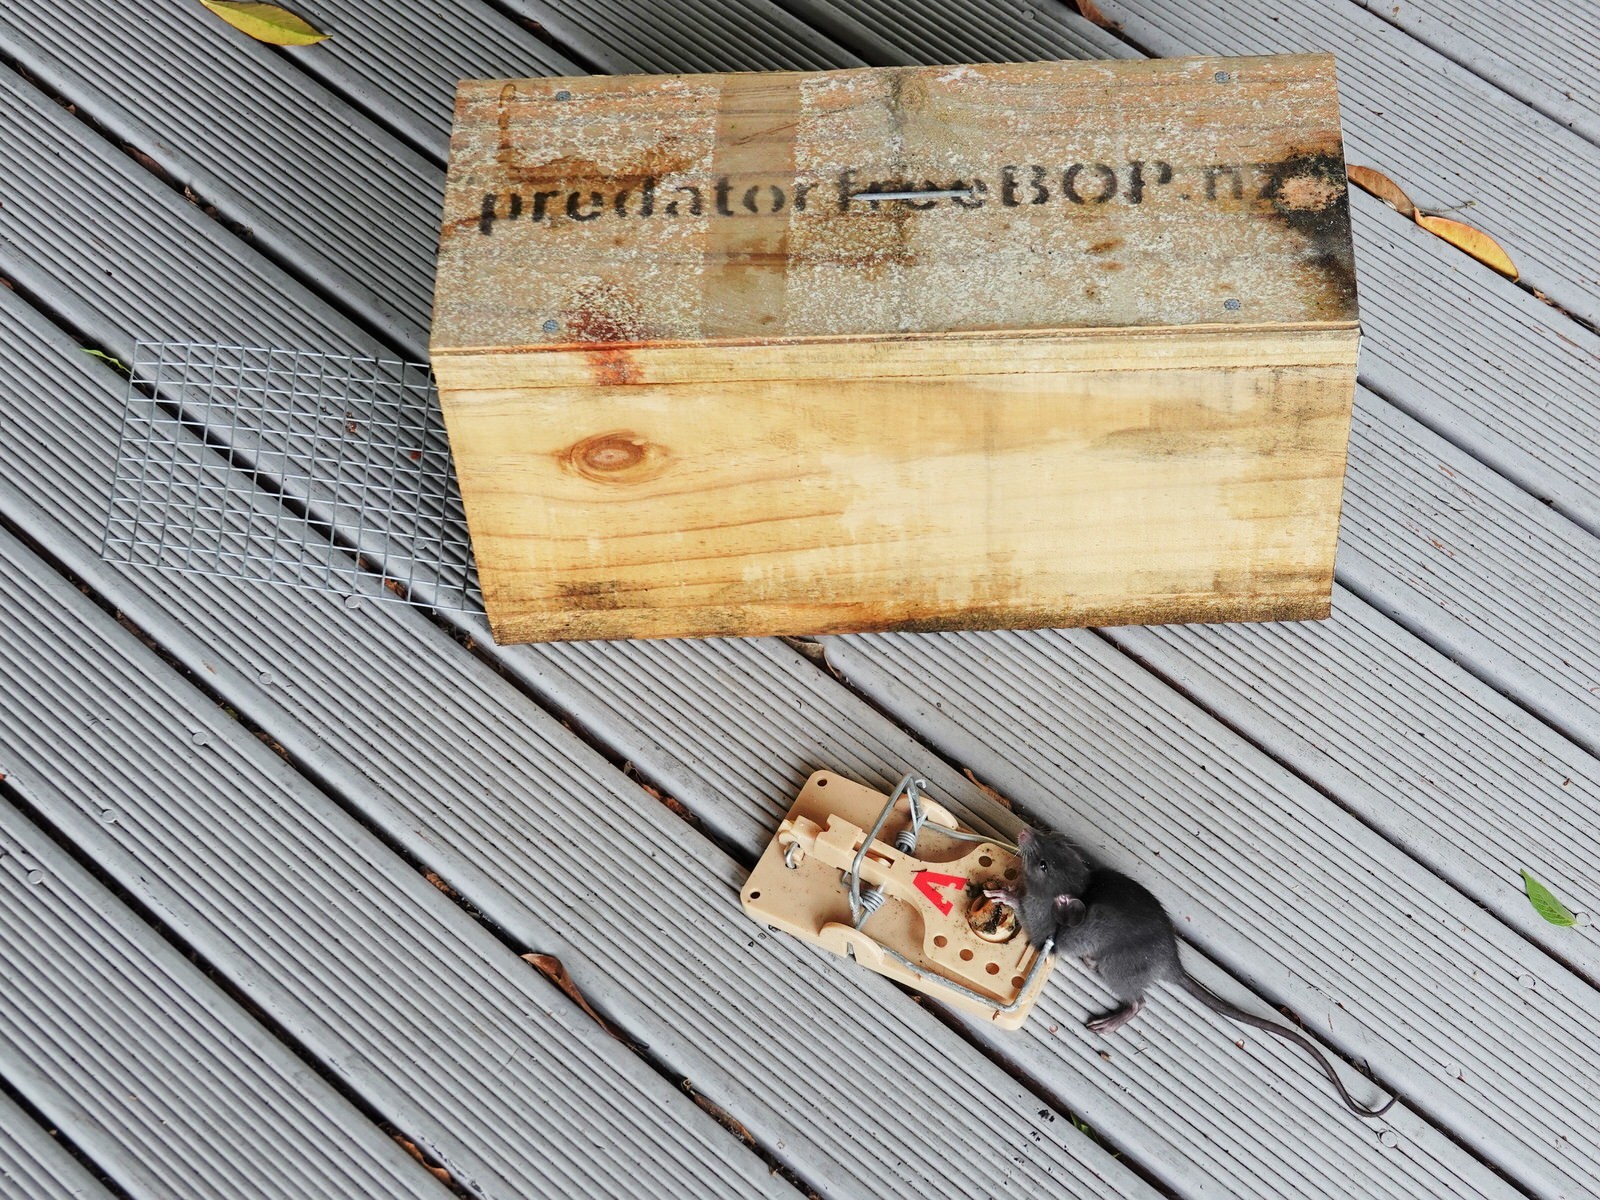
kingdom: Animalia
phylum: Chordata
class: Mammalia
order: Rodentia
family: Muridae
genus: Rattus
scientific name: Rattus rattus
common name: Black rat
